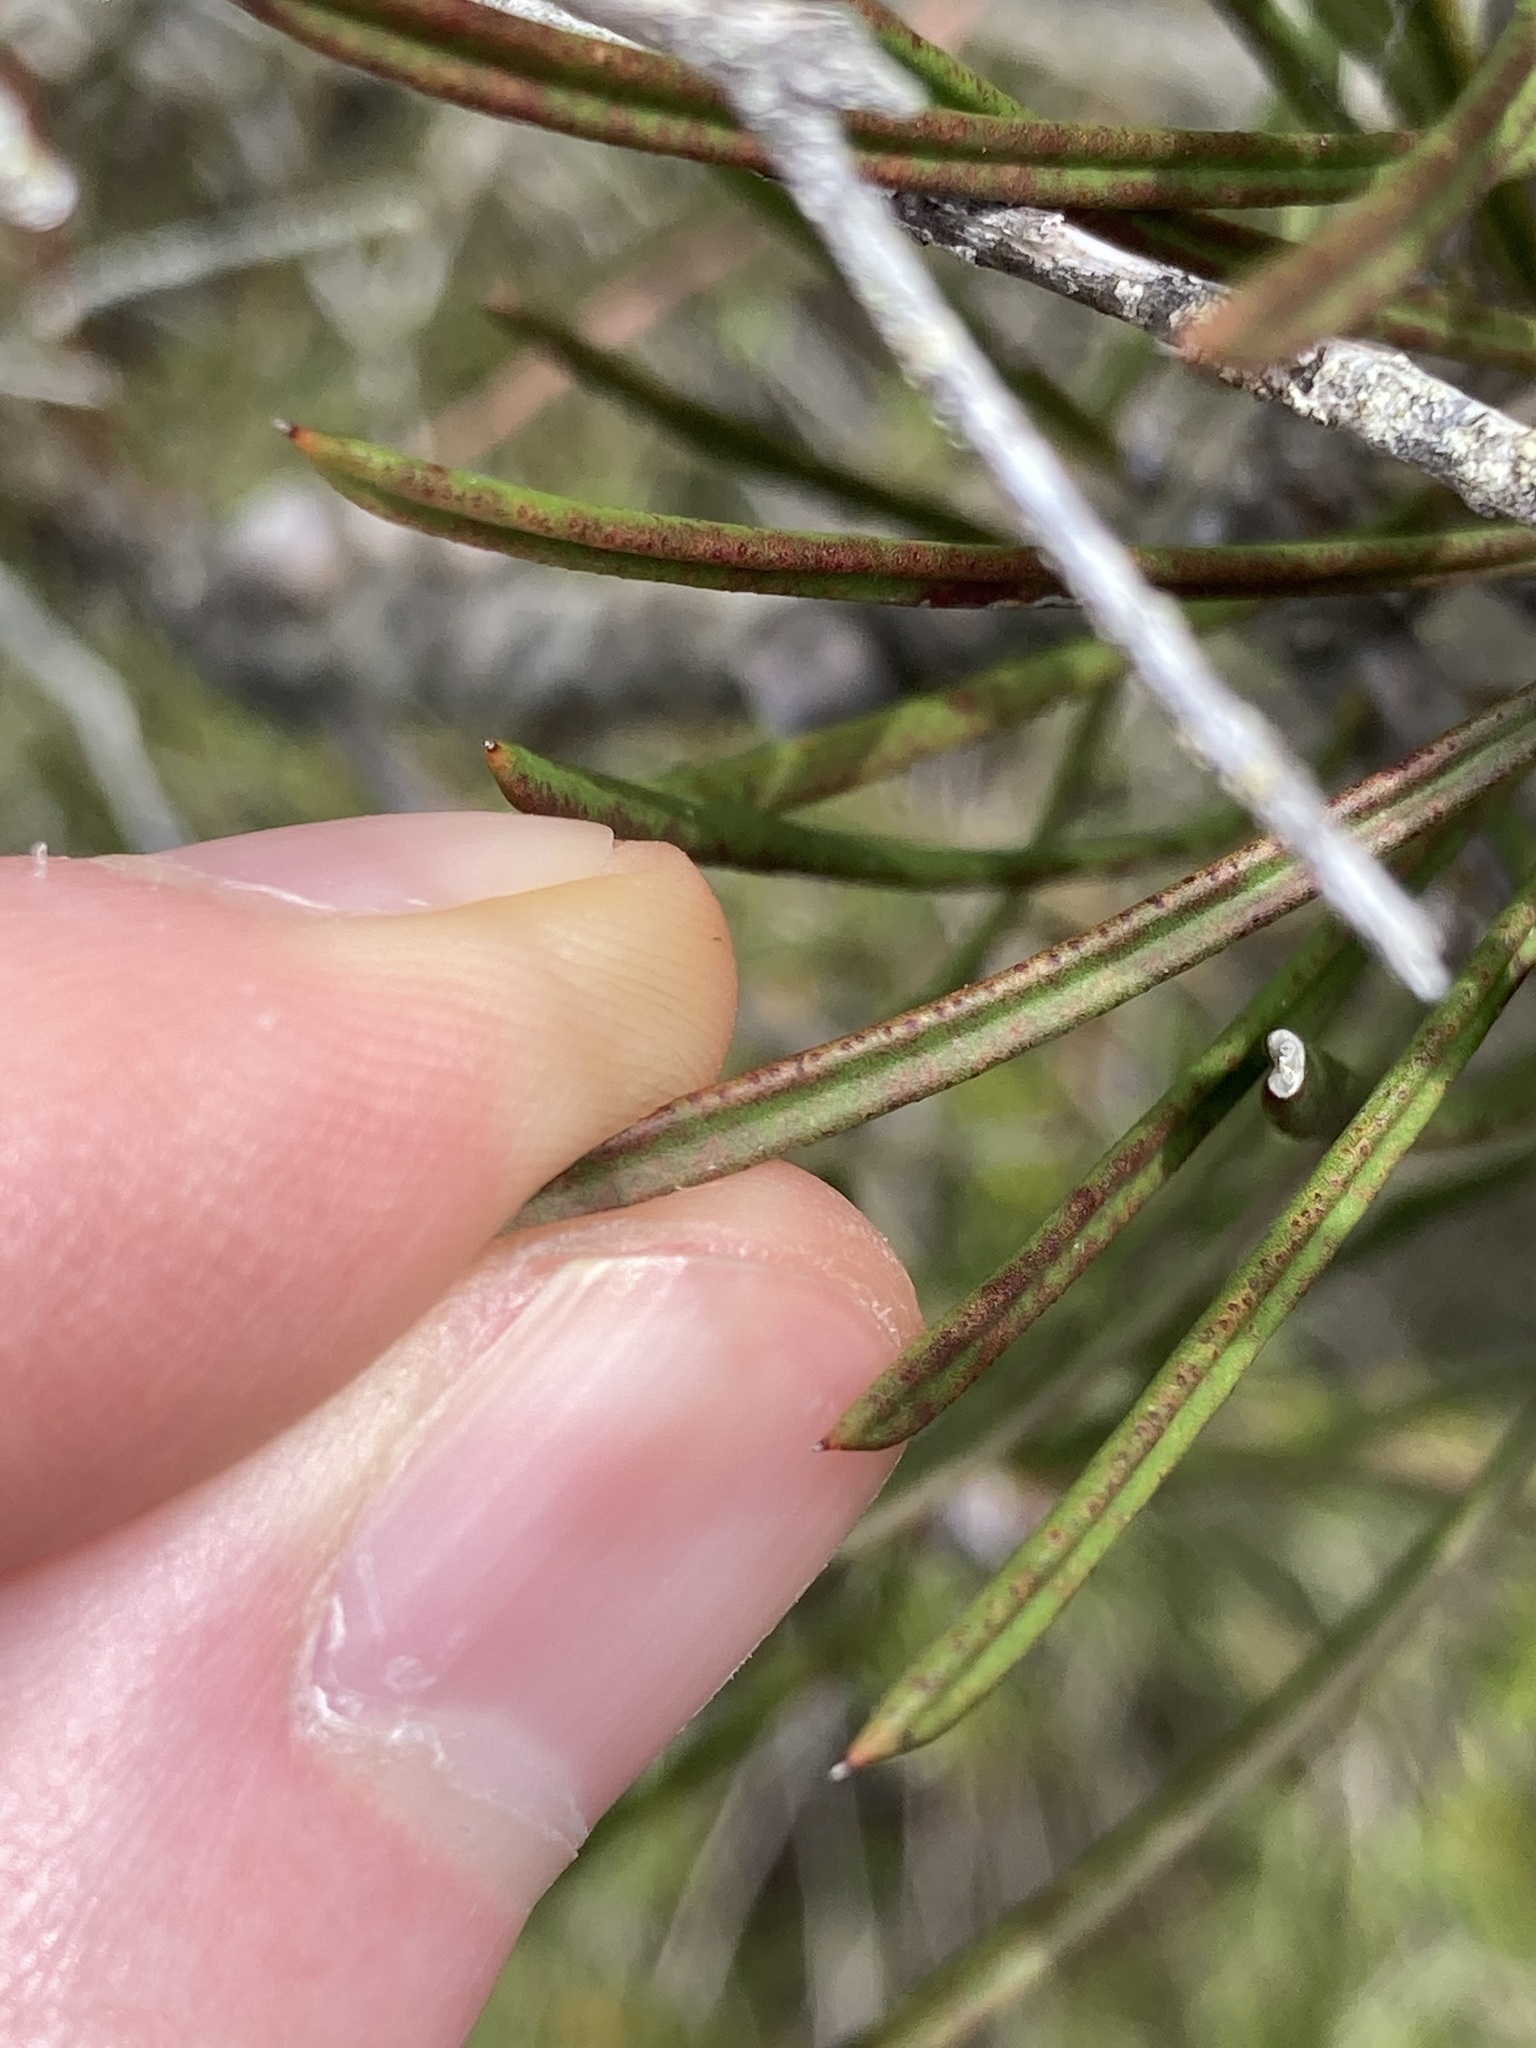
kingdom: Plantae
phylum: Tracheophyta
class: Magnoliopsida
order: Myrtales
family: Myrtaceae
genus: Callistemon
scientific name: Callistemon linearis
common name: Narrow-leaf bottlebrush
